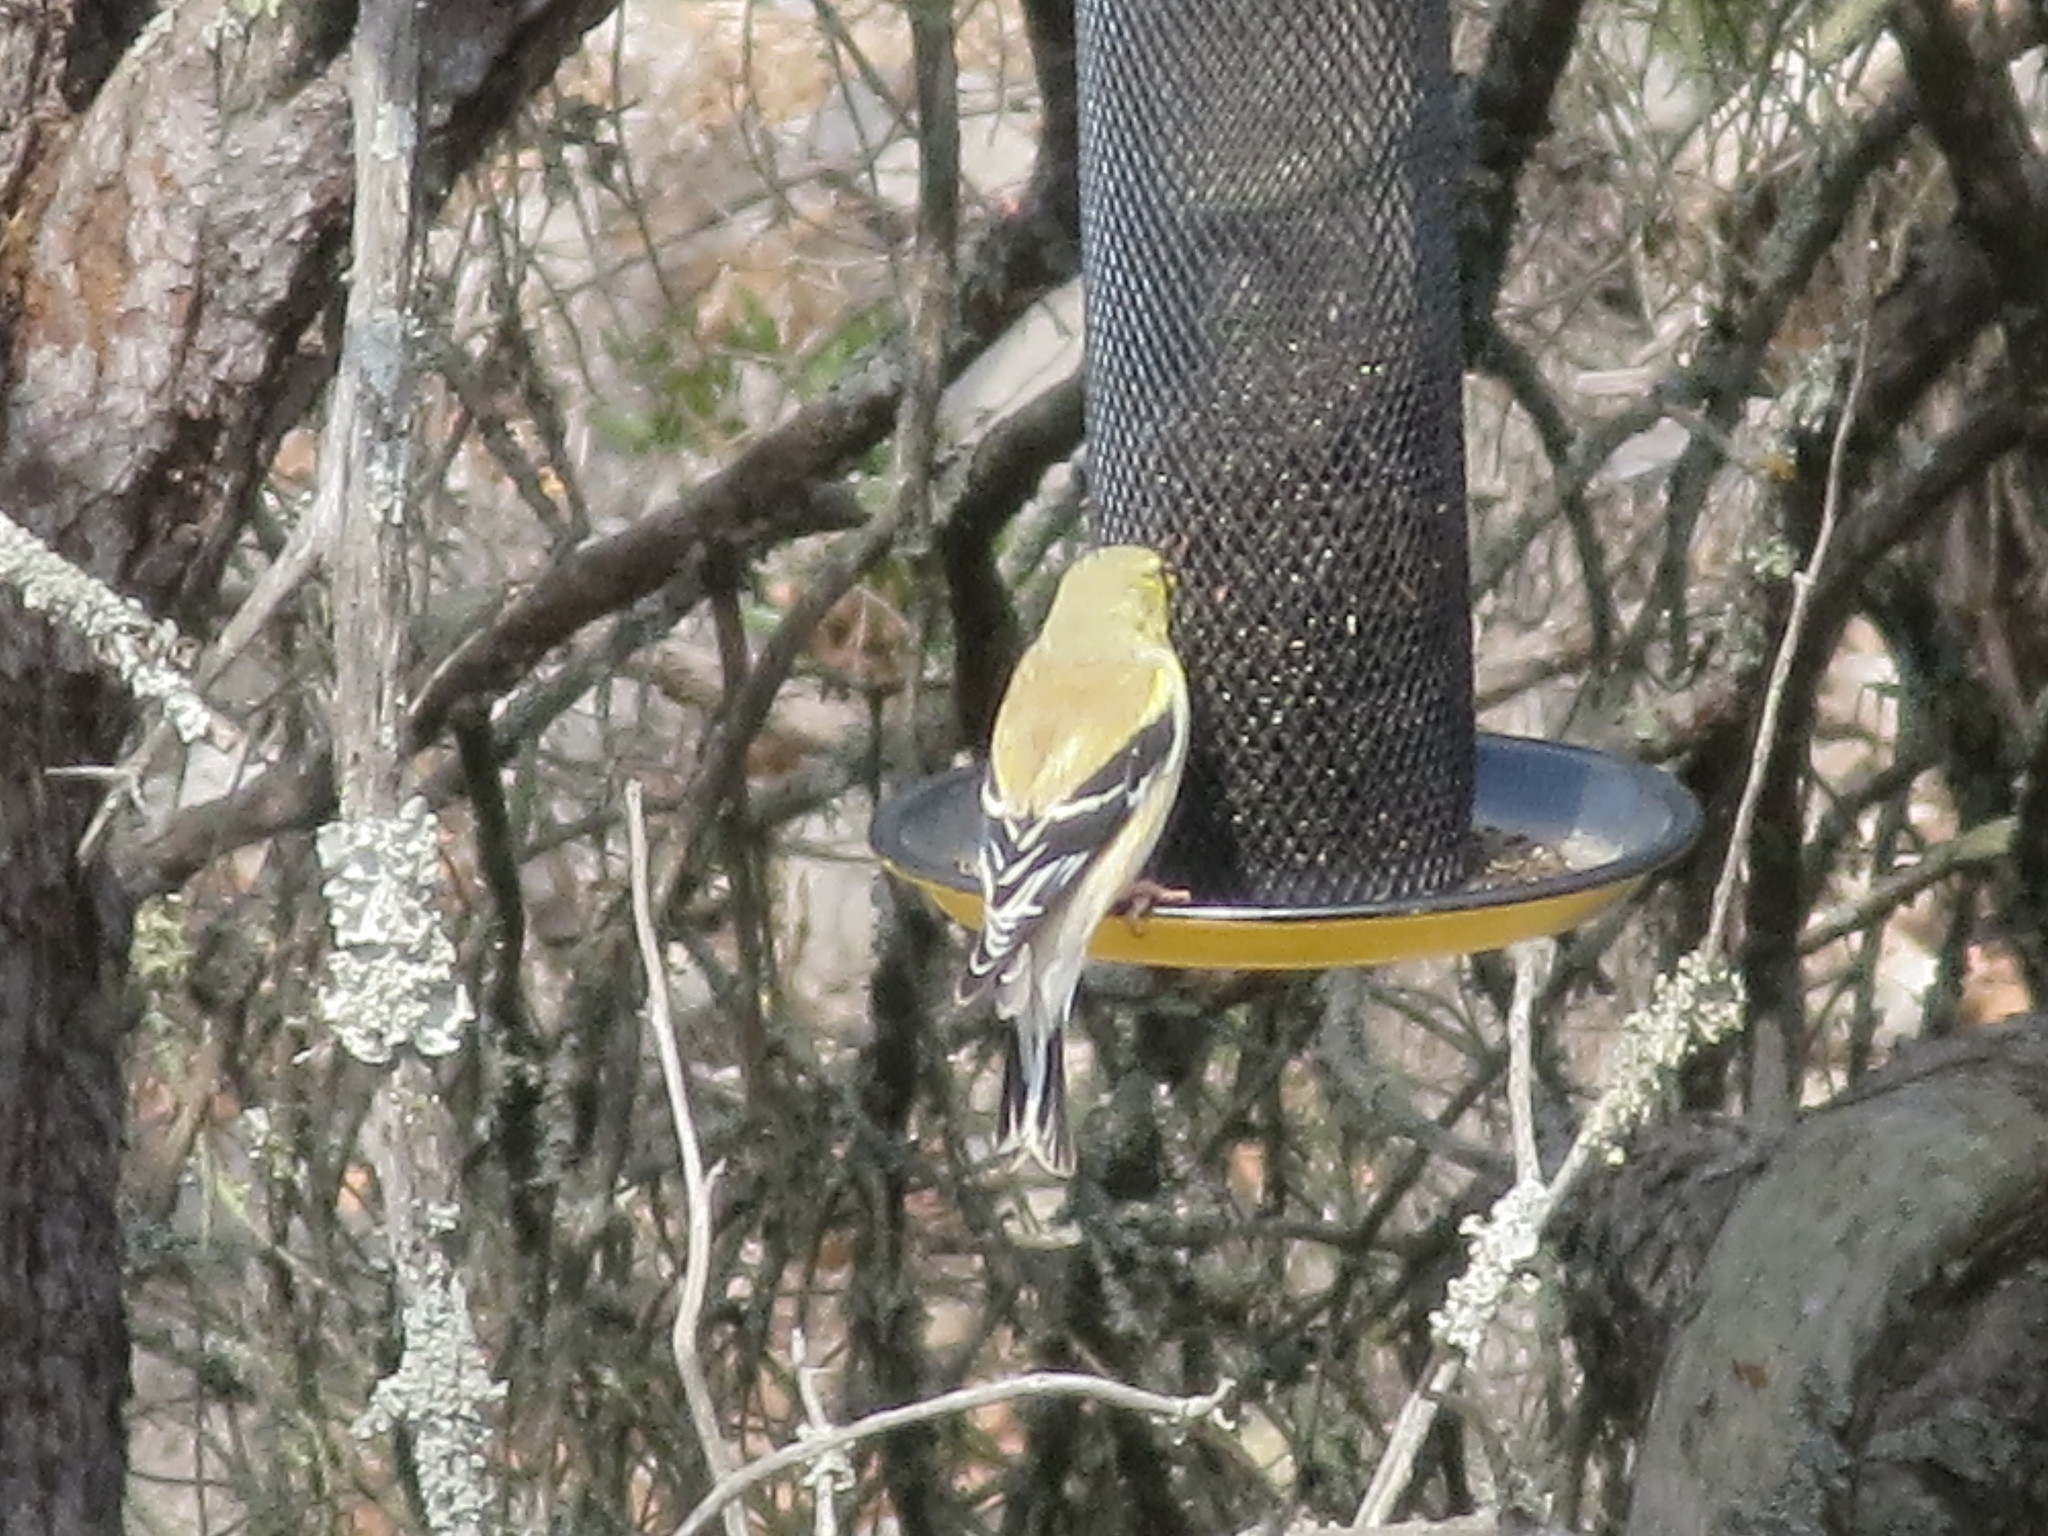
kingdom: Animalia
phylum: Chordata
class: Aves
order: Passeriformes
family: Fringillidae
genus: Spinus
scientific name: Spinus tristis
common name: American goldfinch
